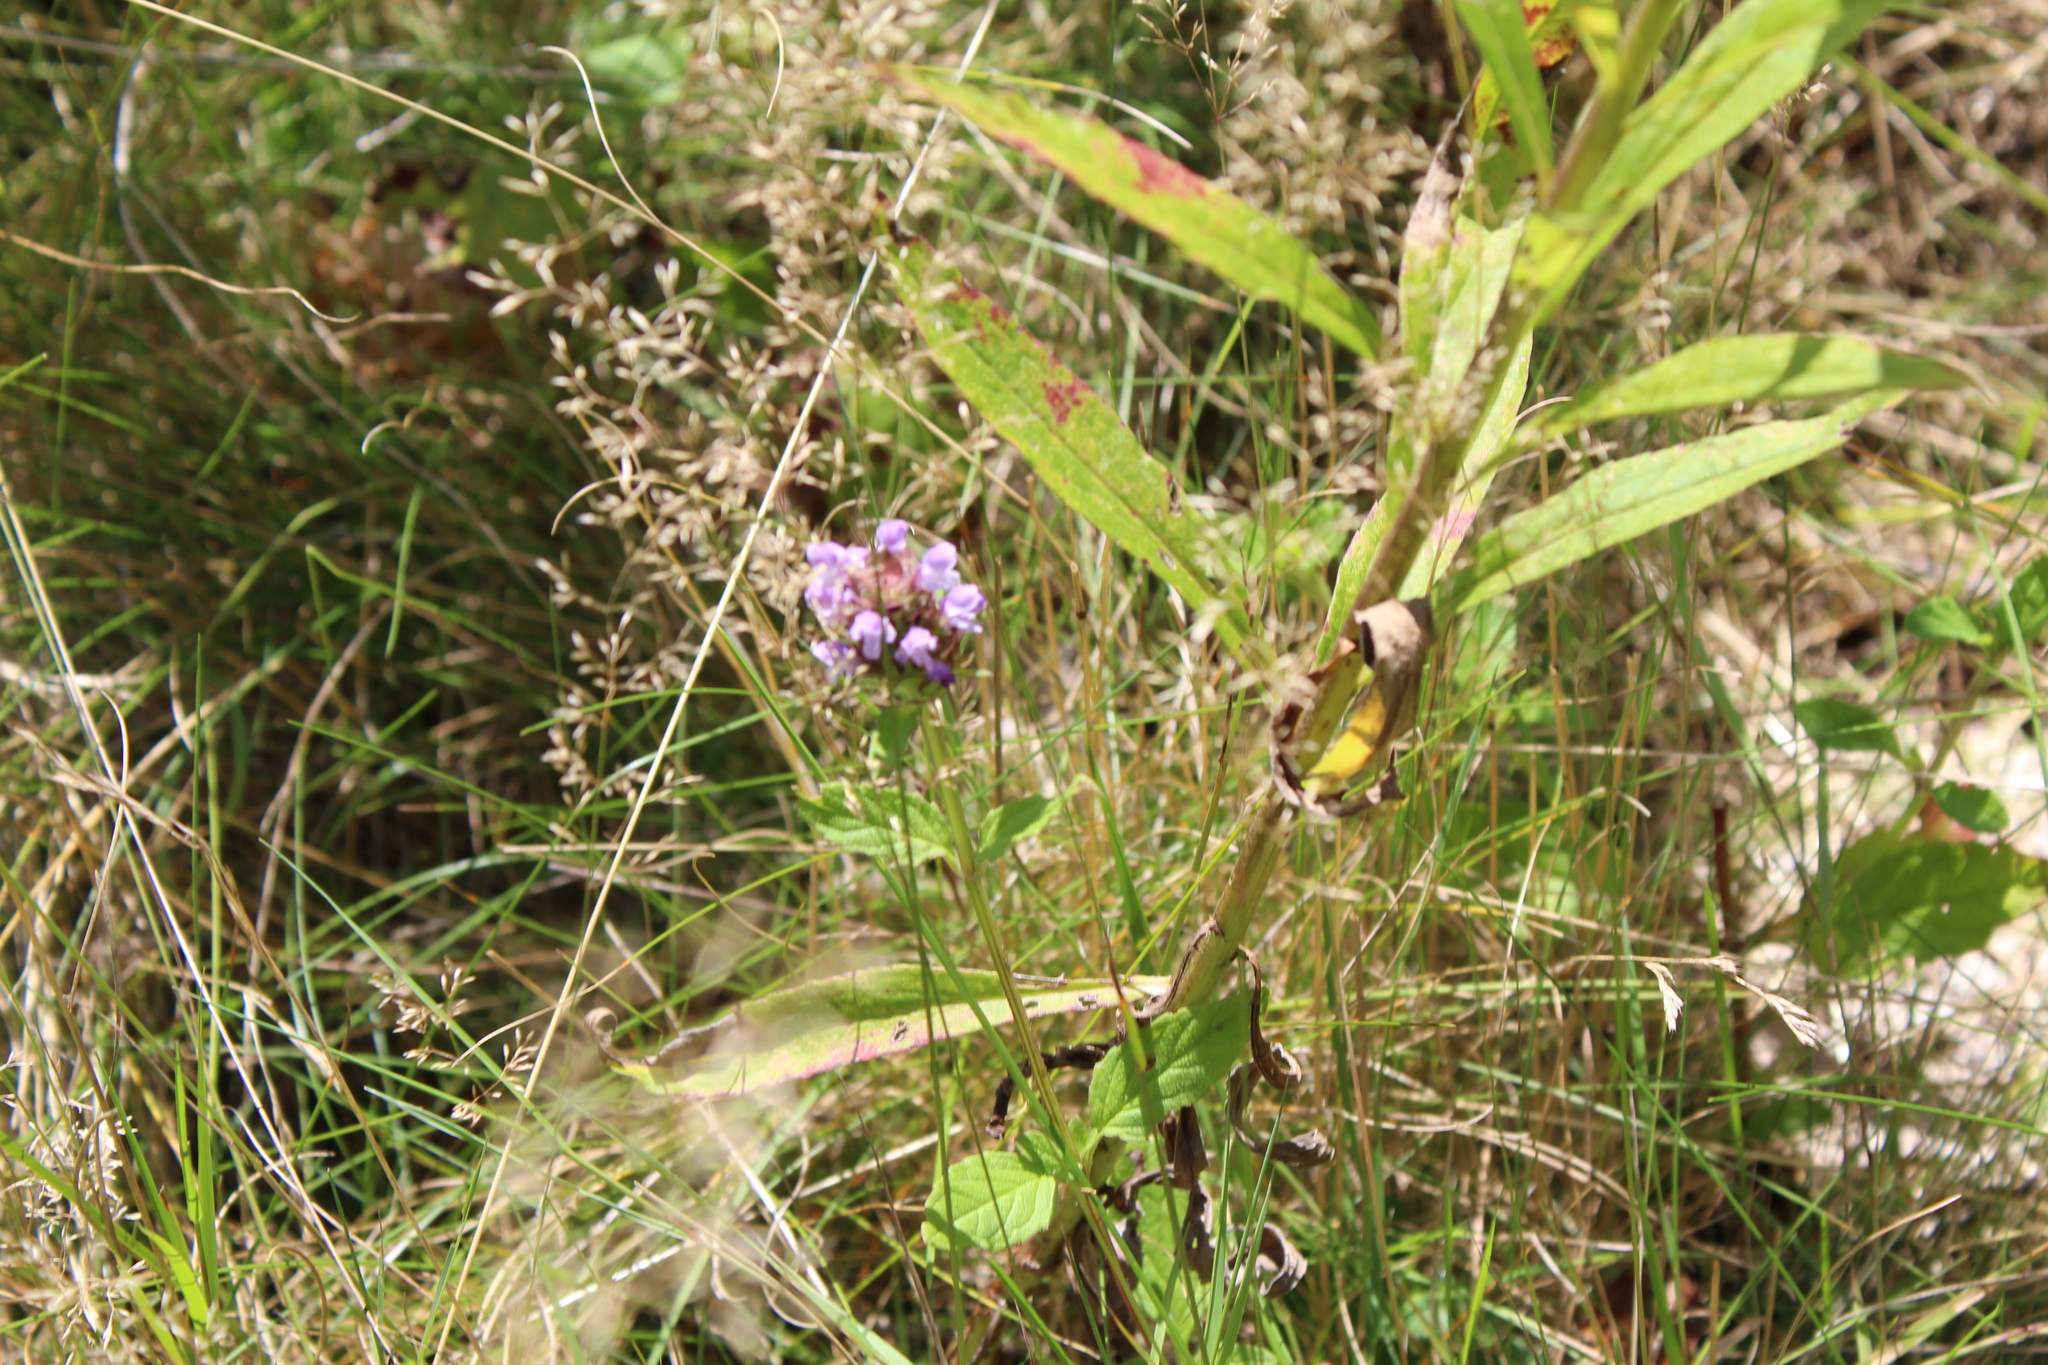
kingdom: Plantae
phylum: Tracheophyta
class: Magnoliopsida
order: Lamiales
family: Lamiaceae
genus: Prunella
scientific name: Prunella vulgaris
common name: Heal-all
